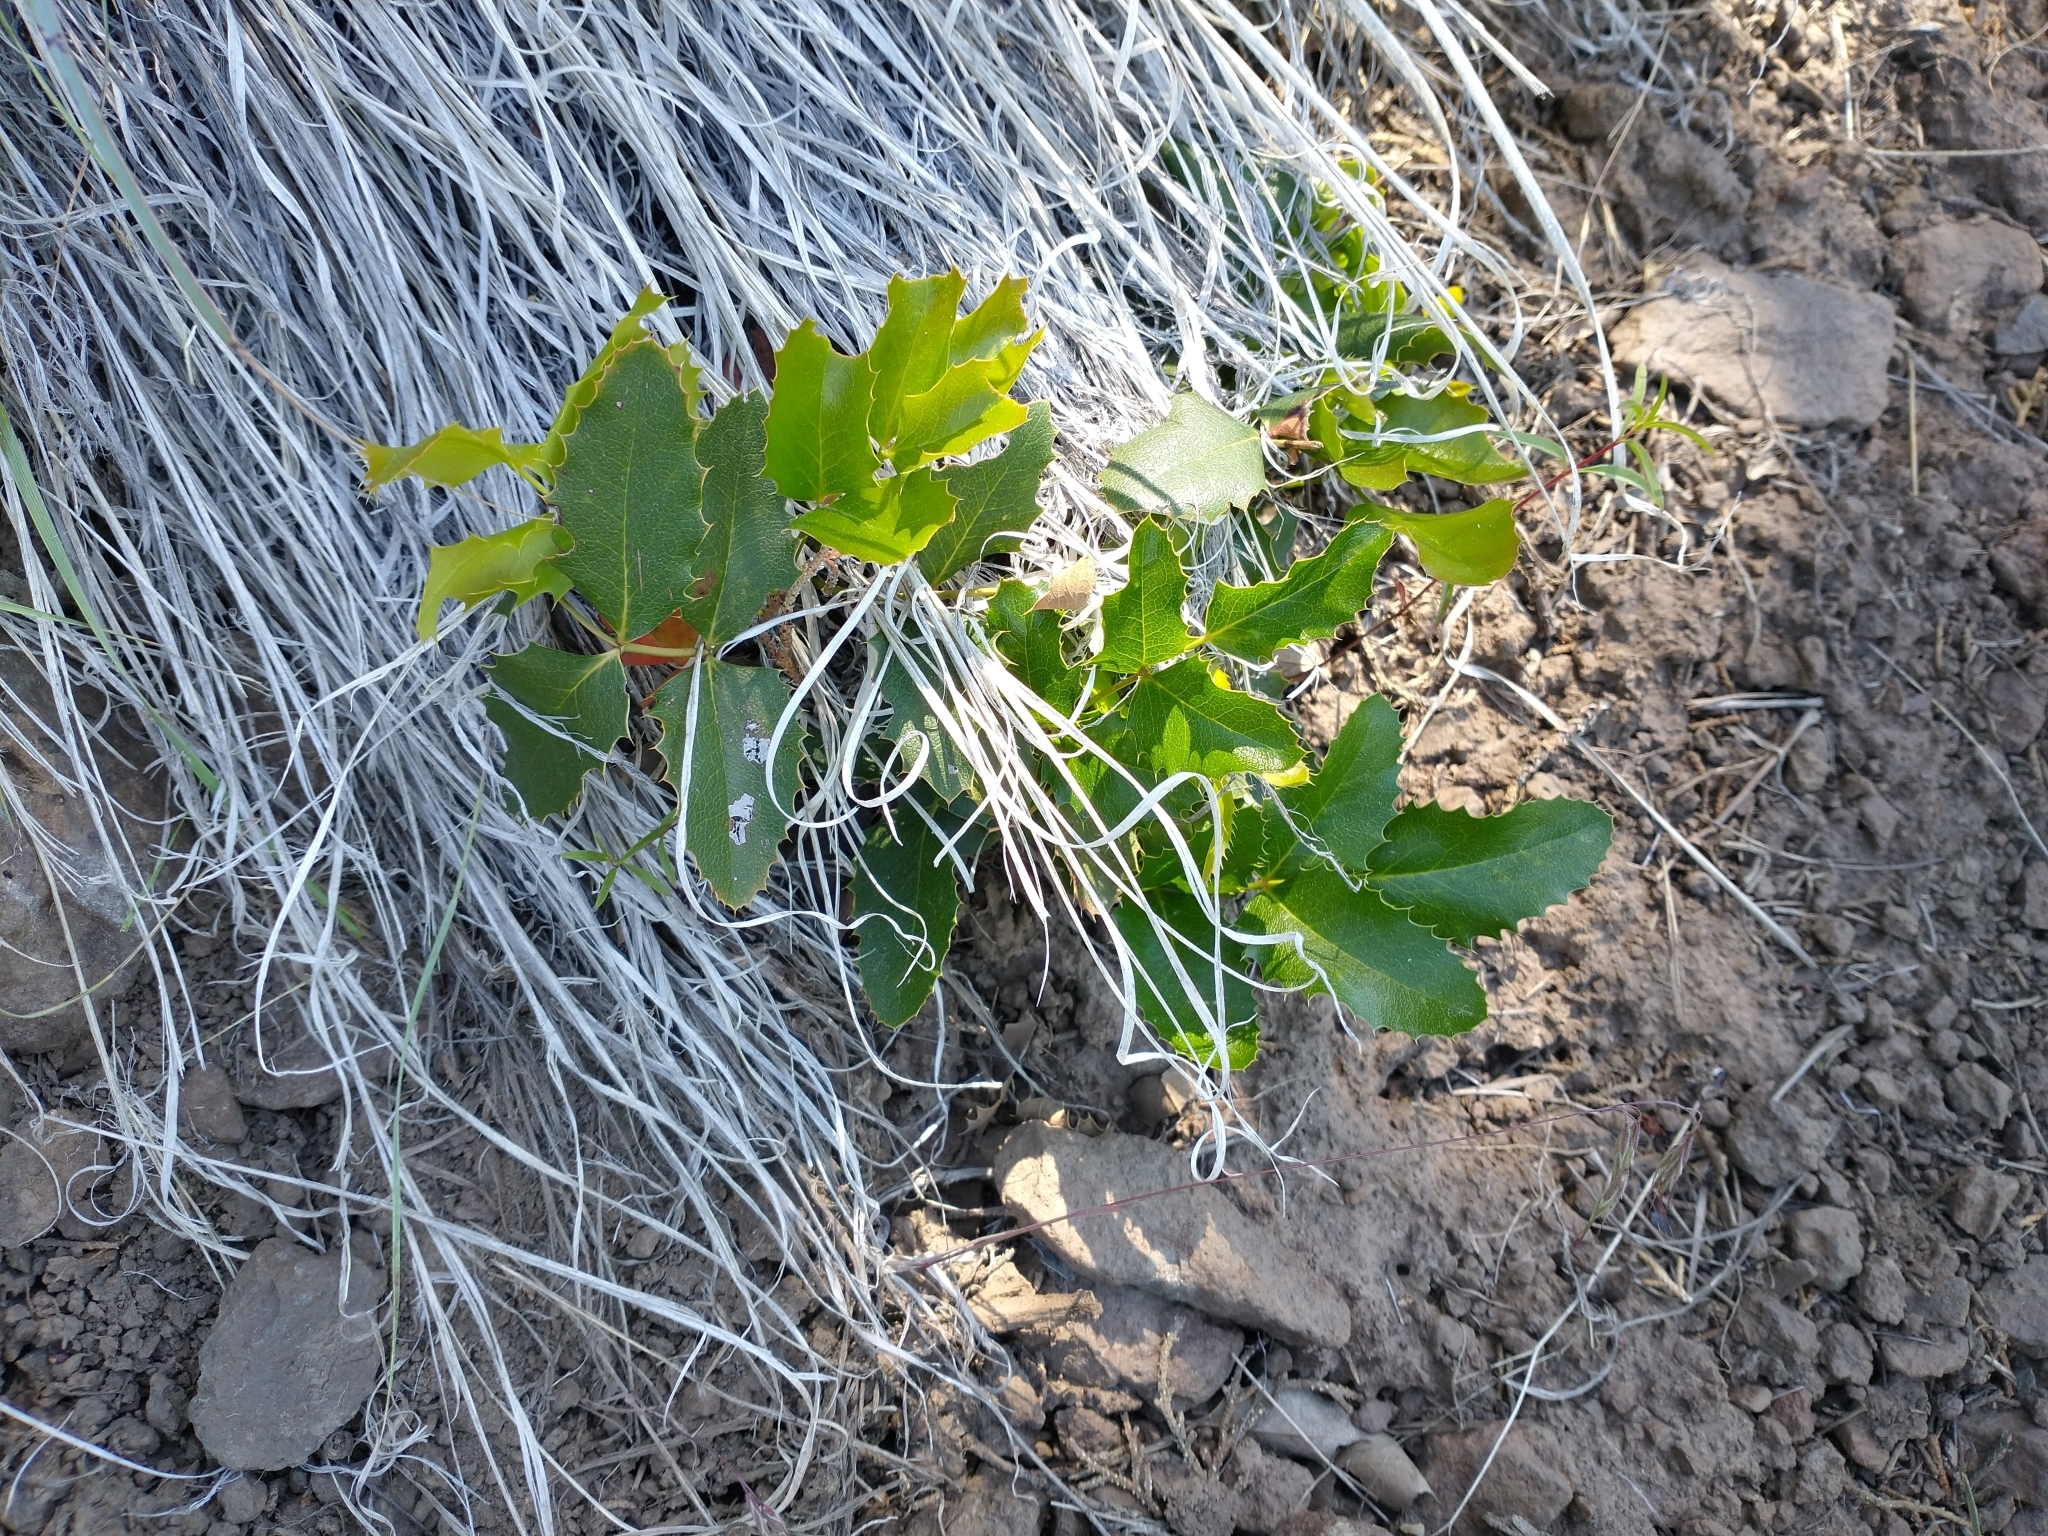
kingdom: Plantae
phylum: Tracheophyta
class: Magnoliopsida
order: Ranunculales
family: Berberidaceae
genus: Mahonia
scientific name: Mahonia repens
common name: Creeping oregon-grape
